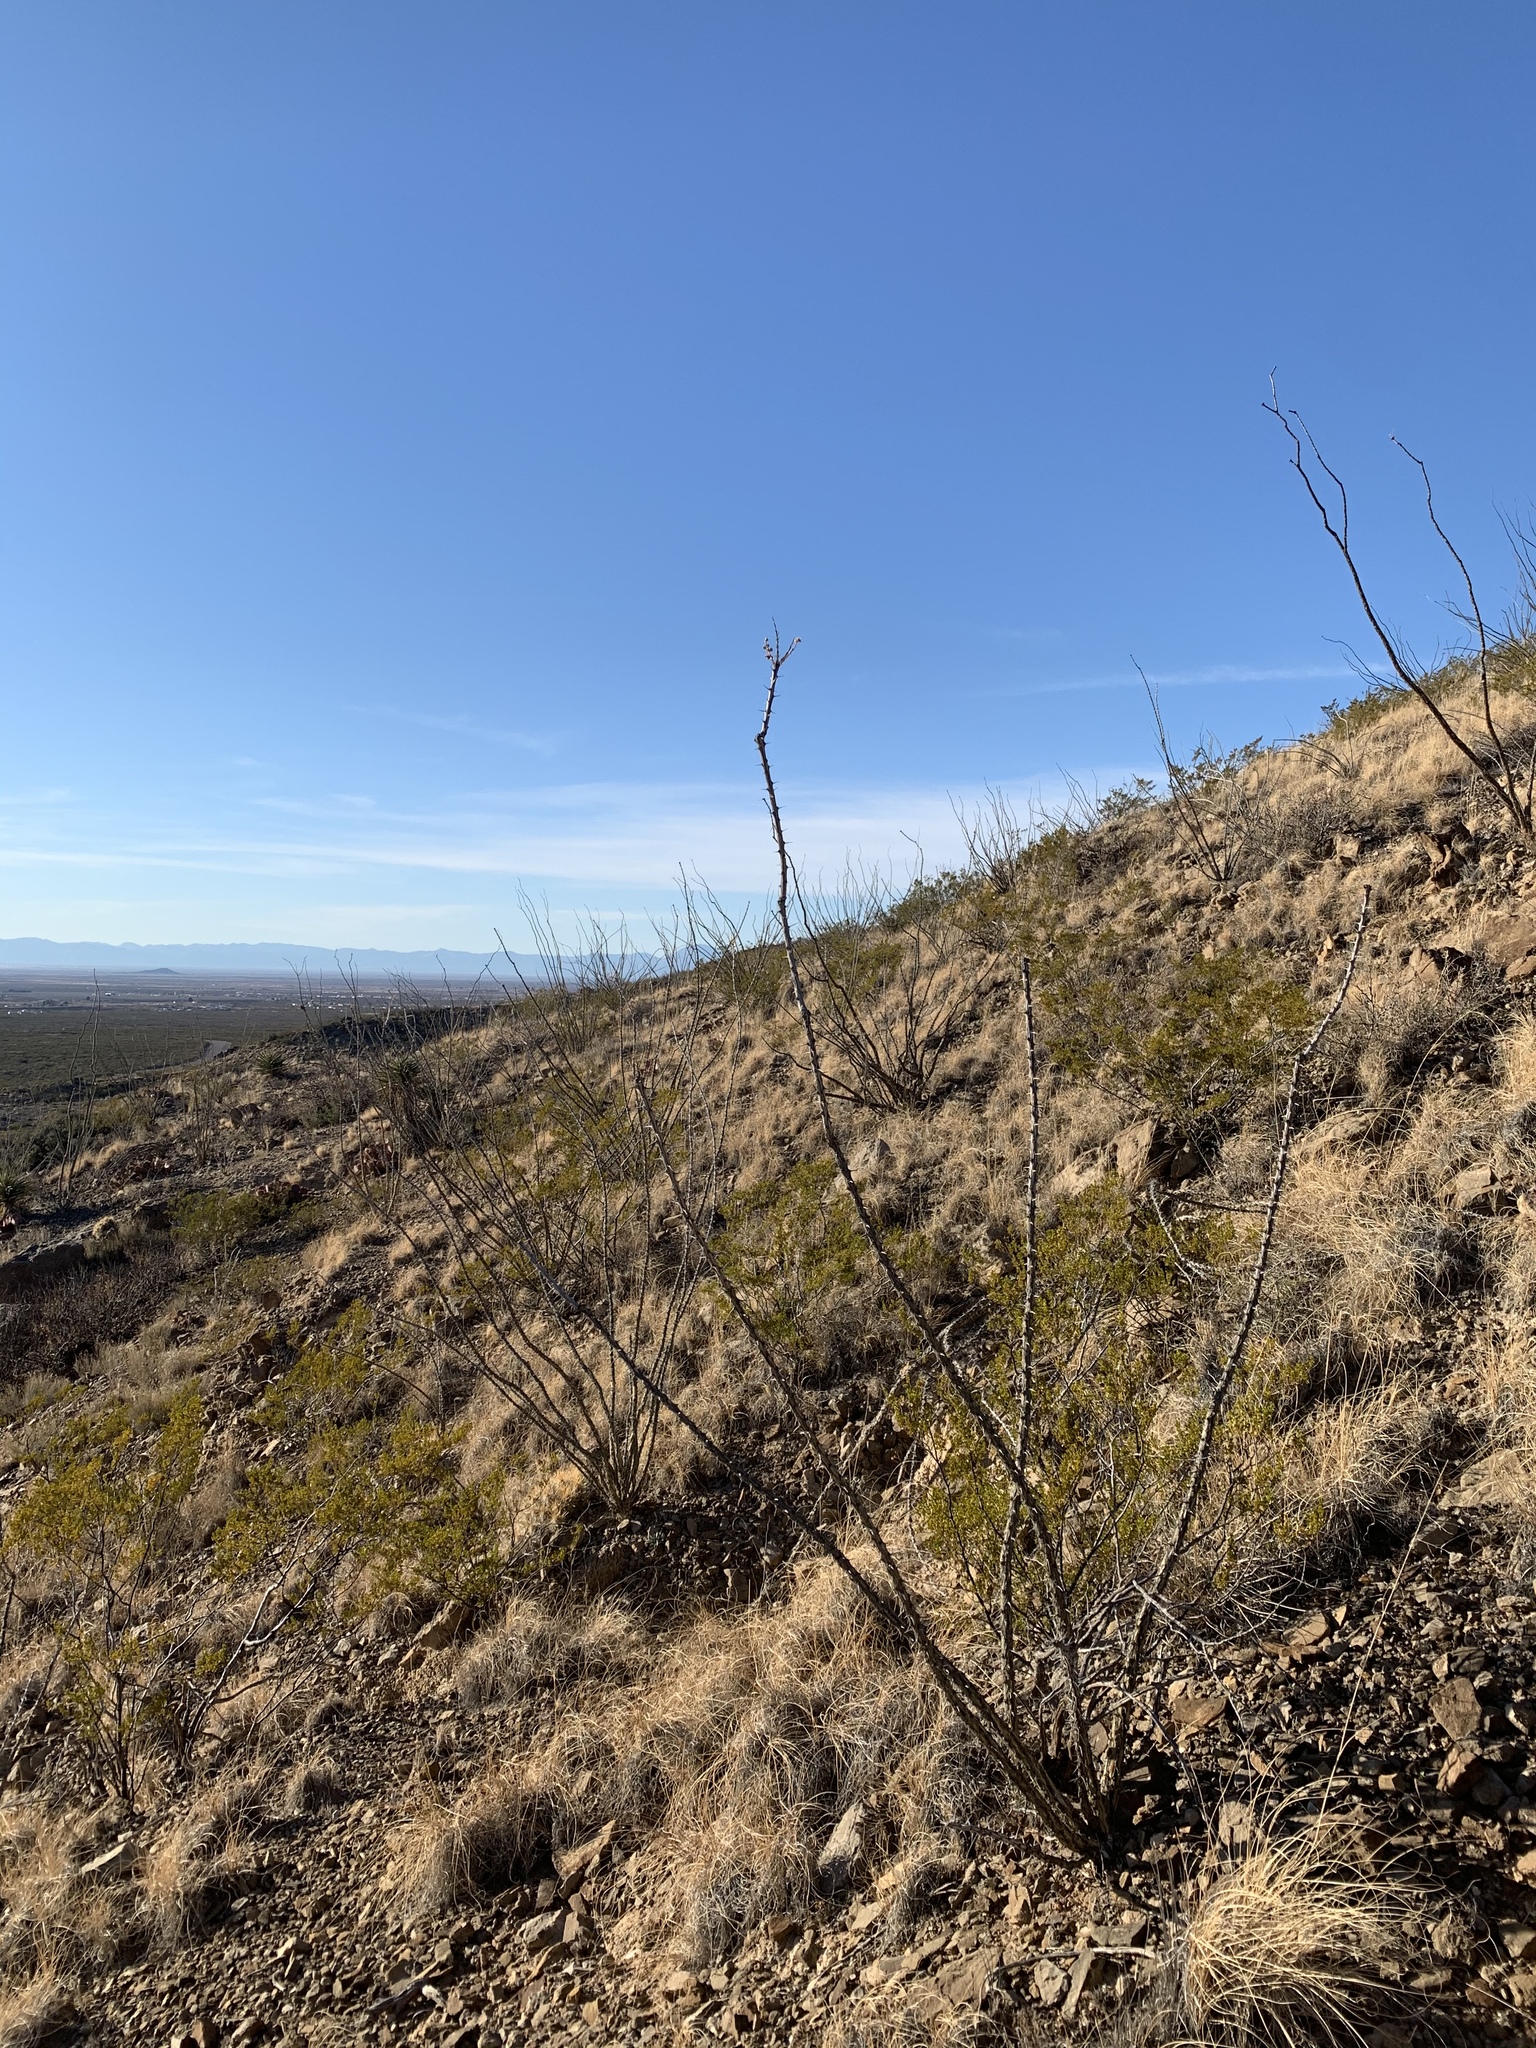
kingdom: Plantae
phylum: Tracheophyta
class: Magnoliopsida
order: Ericales
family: Fouquieriaceae
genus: Fouquieria
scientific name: Fouquieria splendens
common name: Vine-cactus
